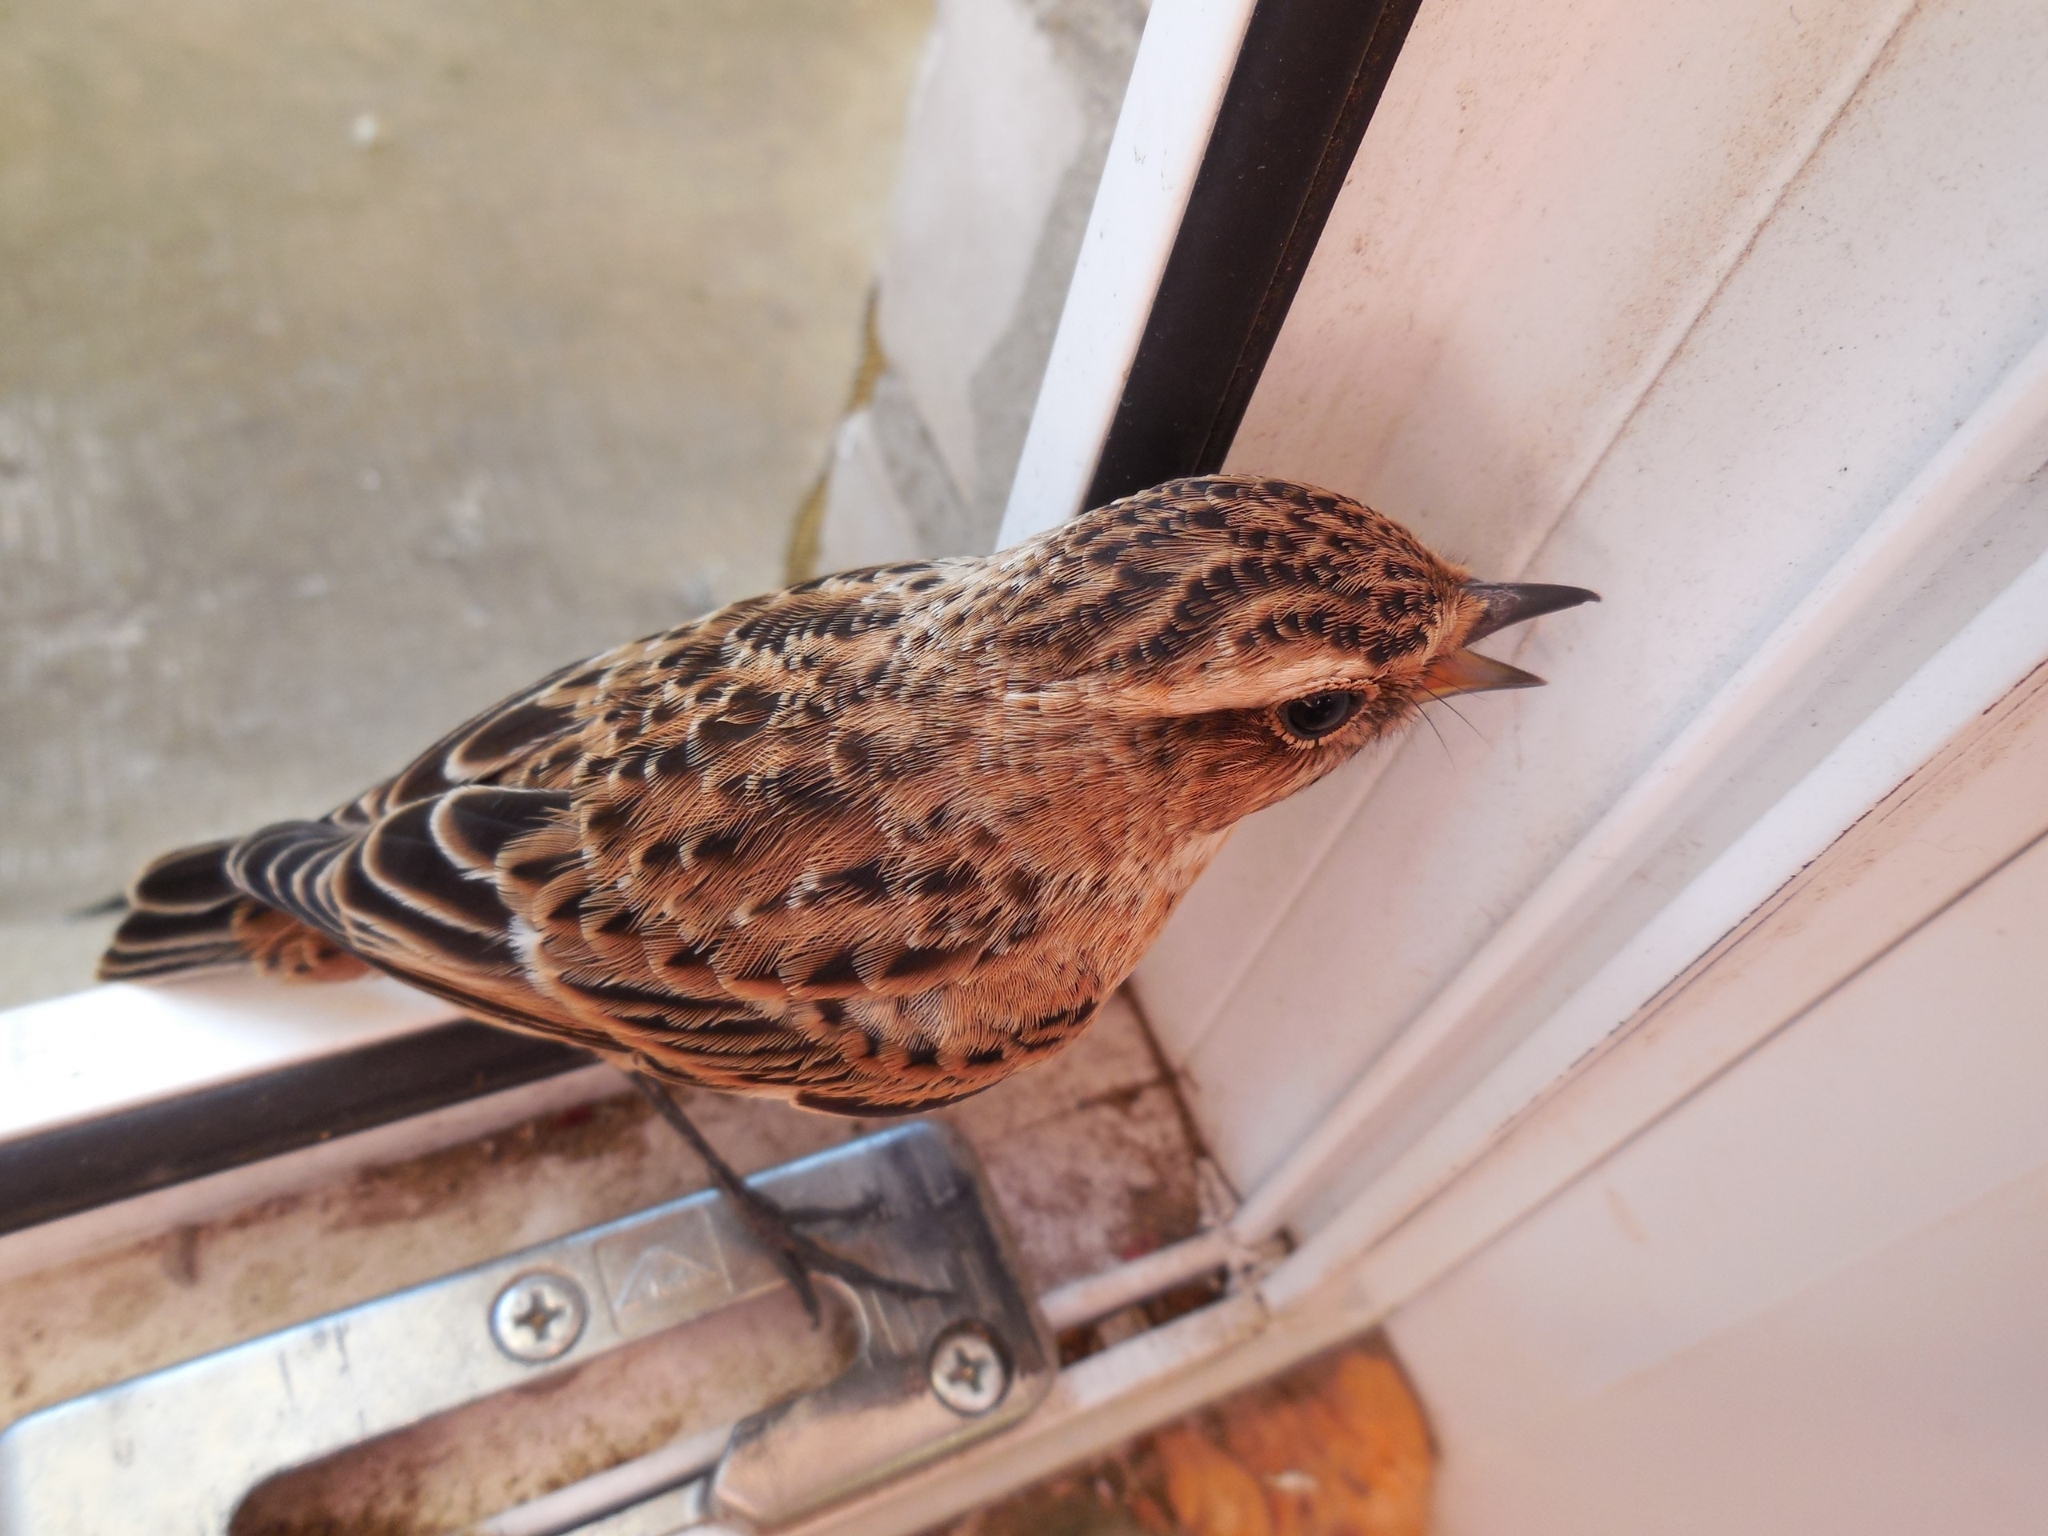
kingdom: Animalia
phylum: Chordata
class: Aves
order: Passeriformes
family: Muscicapidae
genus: Saxicola
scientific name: Saxicola rubetra
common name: Whinchat
